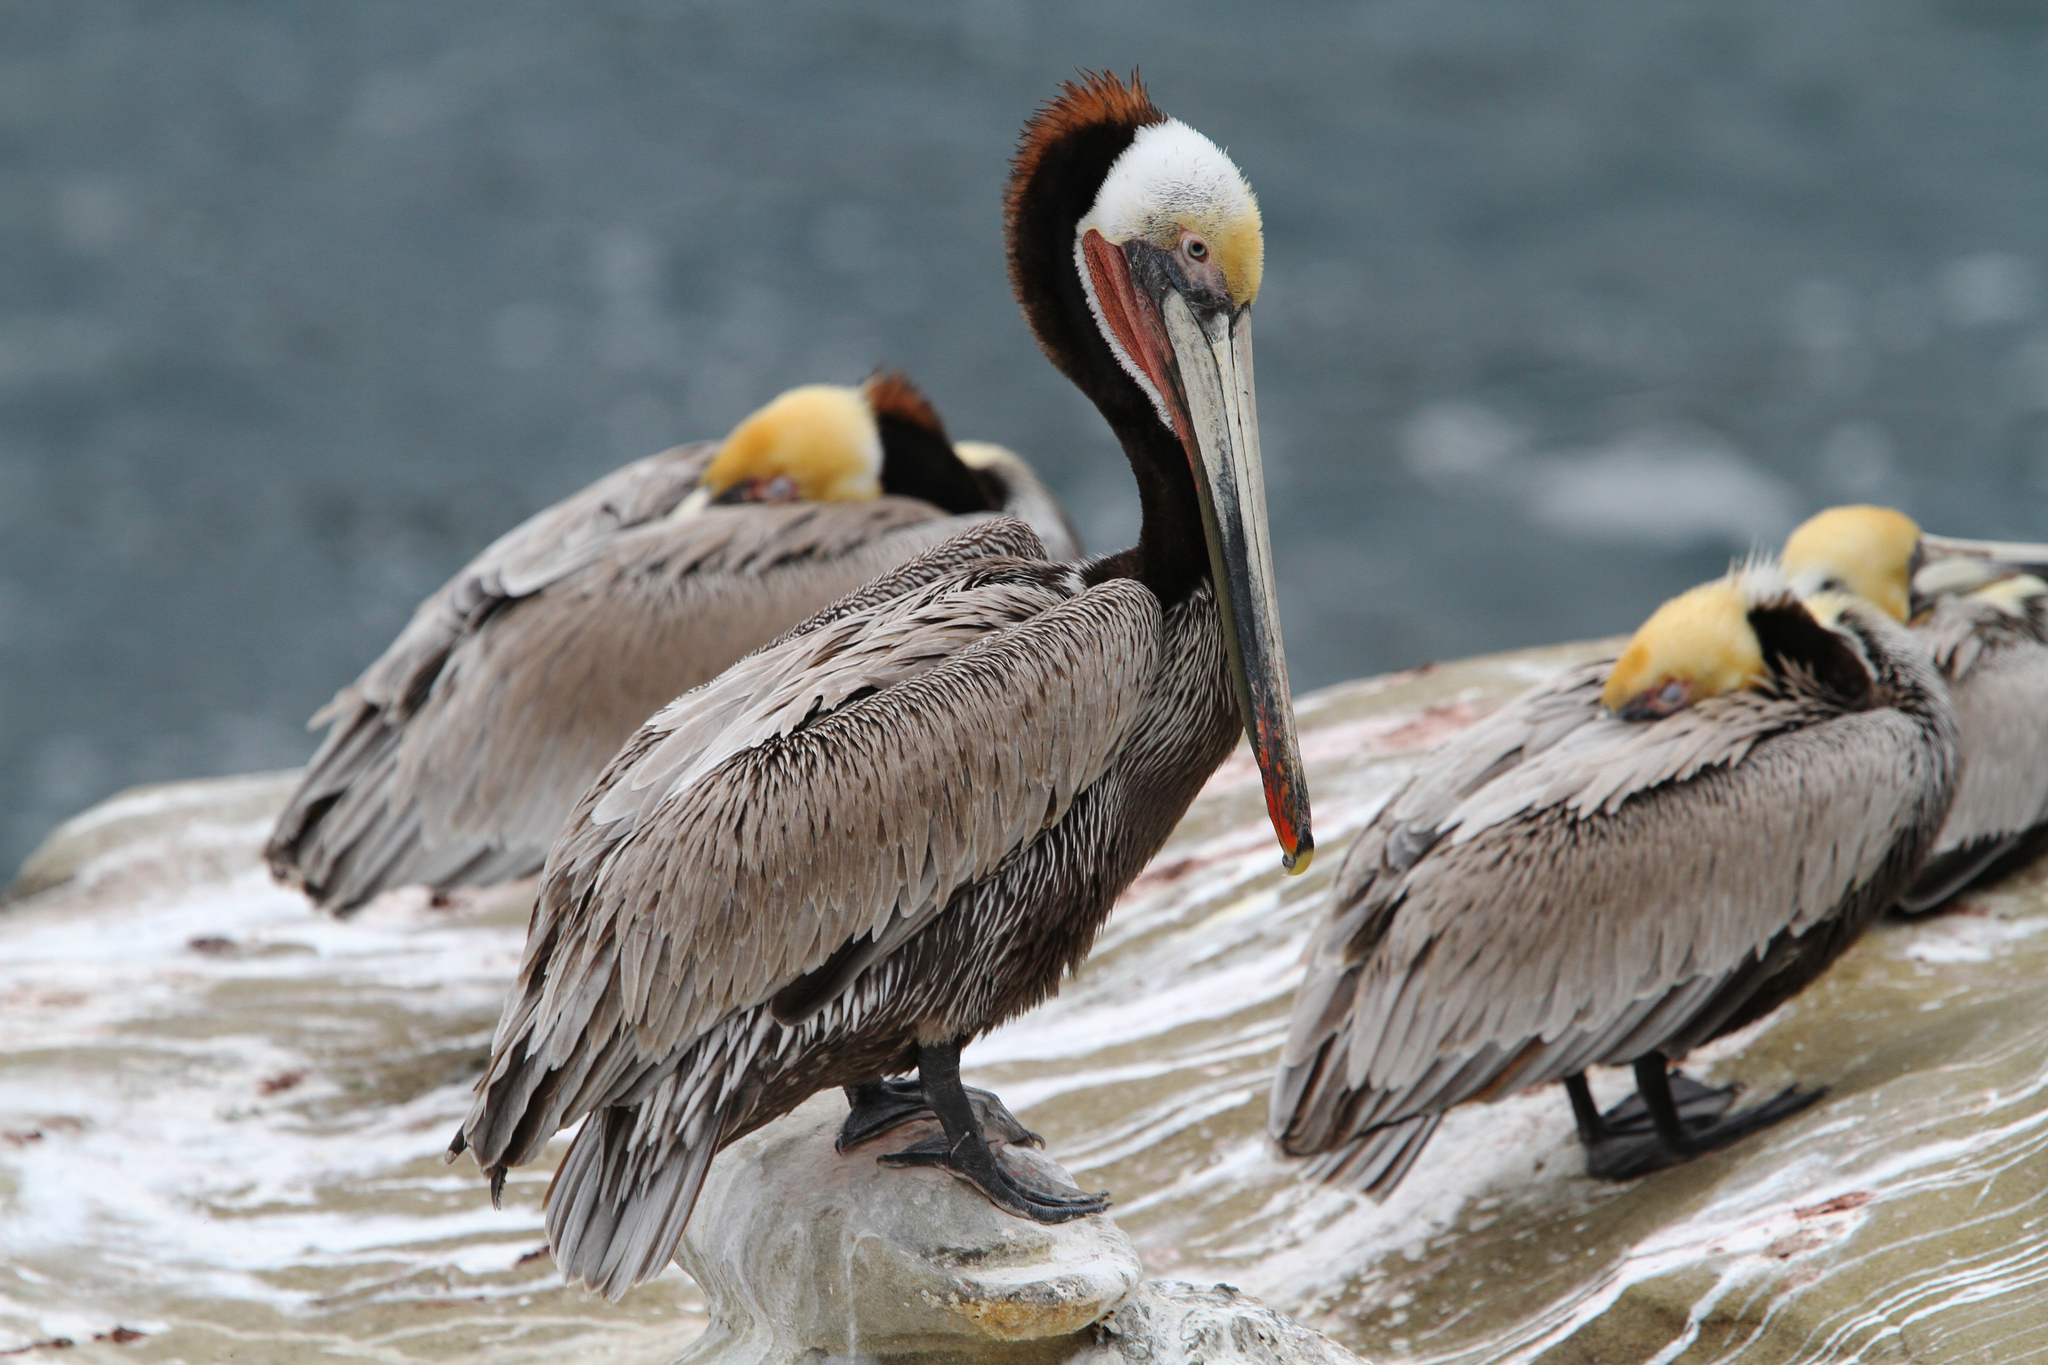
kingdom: Animalia
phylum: Chordata
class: Aves
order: Pelecaniformes
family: Pelecanidae
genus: Pelecanus
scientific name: Pelecanus occidentalis
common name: Brown pelican
